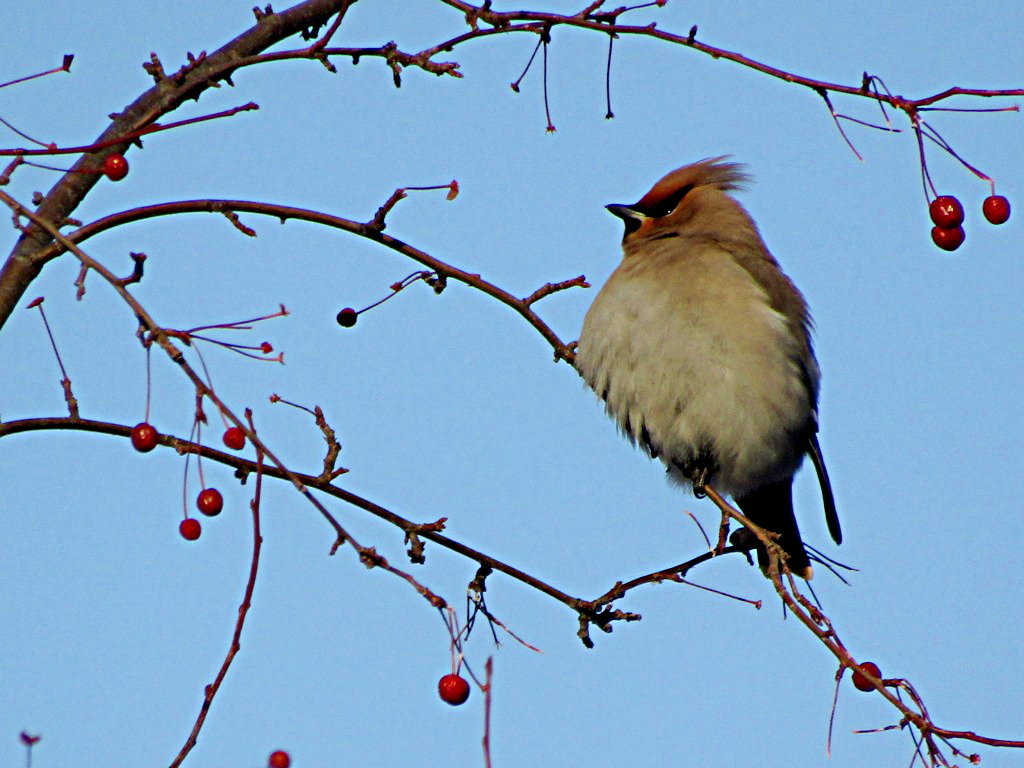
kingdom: Animalia
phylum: Chordata
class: Aves
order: Passeriformes
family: Bombycillidae
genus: Bombycilla
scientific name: Bombycilla garrulus
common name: Bohemian waxwing
